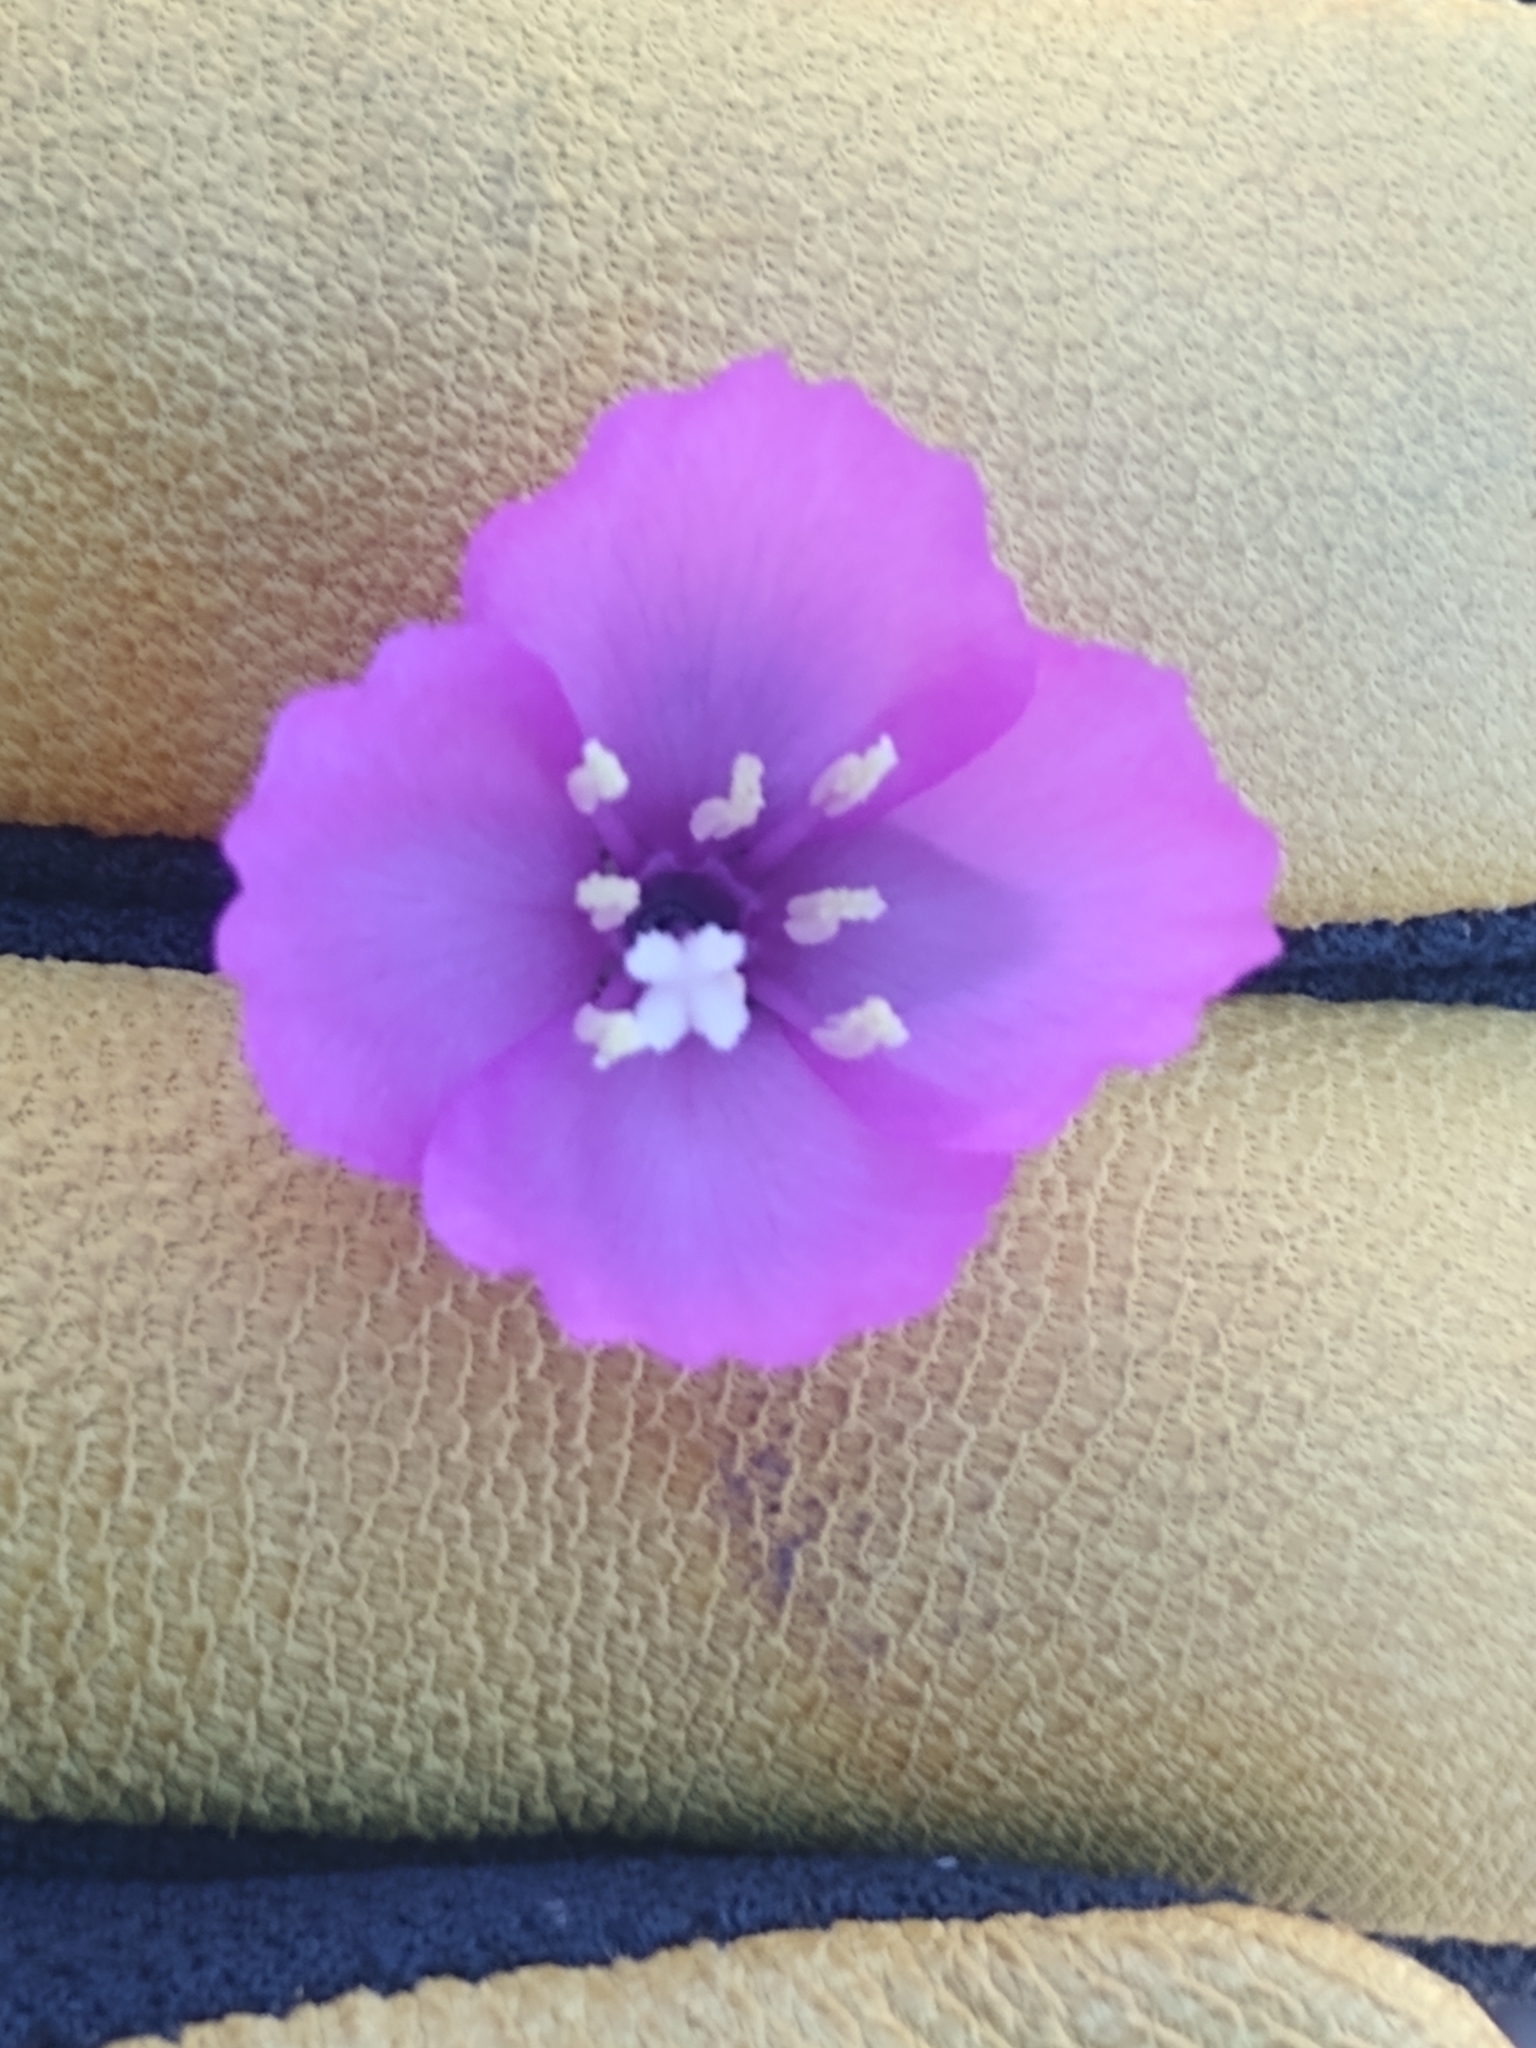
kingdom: Plantae
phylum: Tracheophyta
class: Magnoliopsida
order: Myrtales
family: Onagraceae
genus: Clarkia
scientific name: Clarkia purpurea
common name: Purple clarkia
